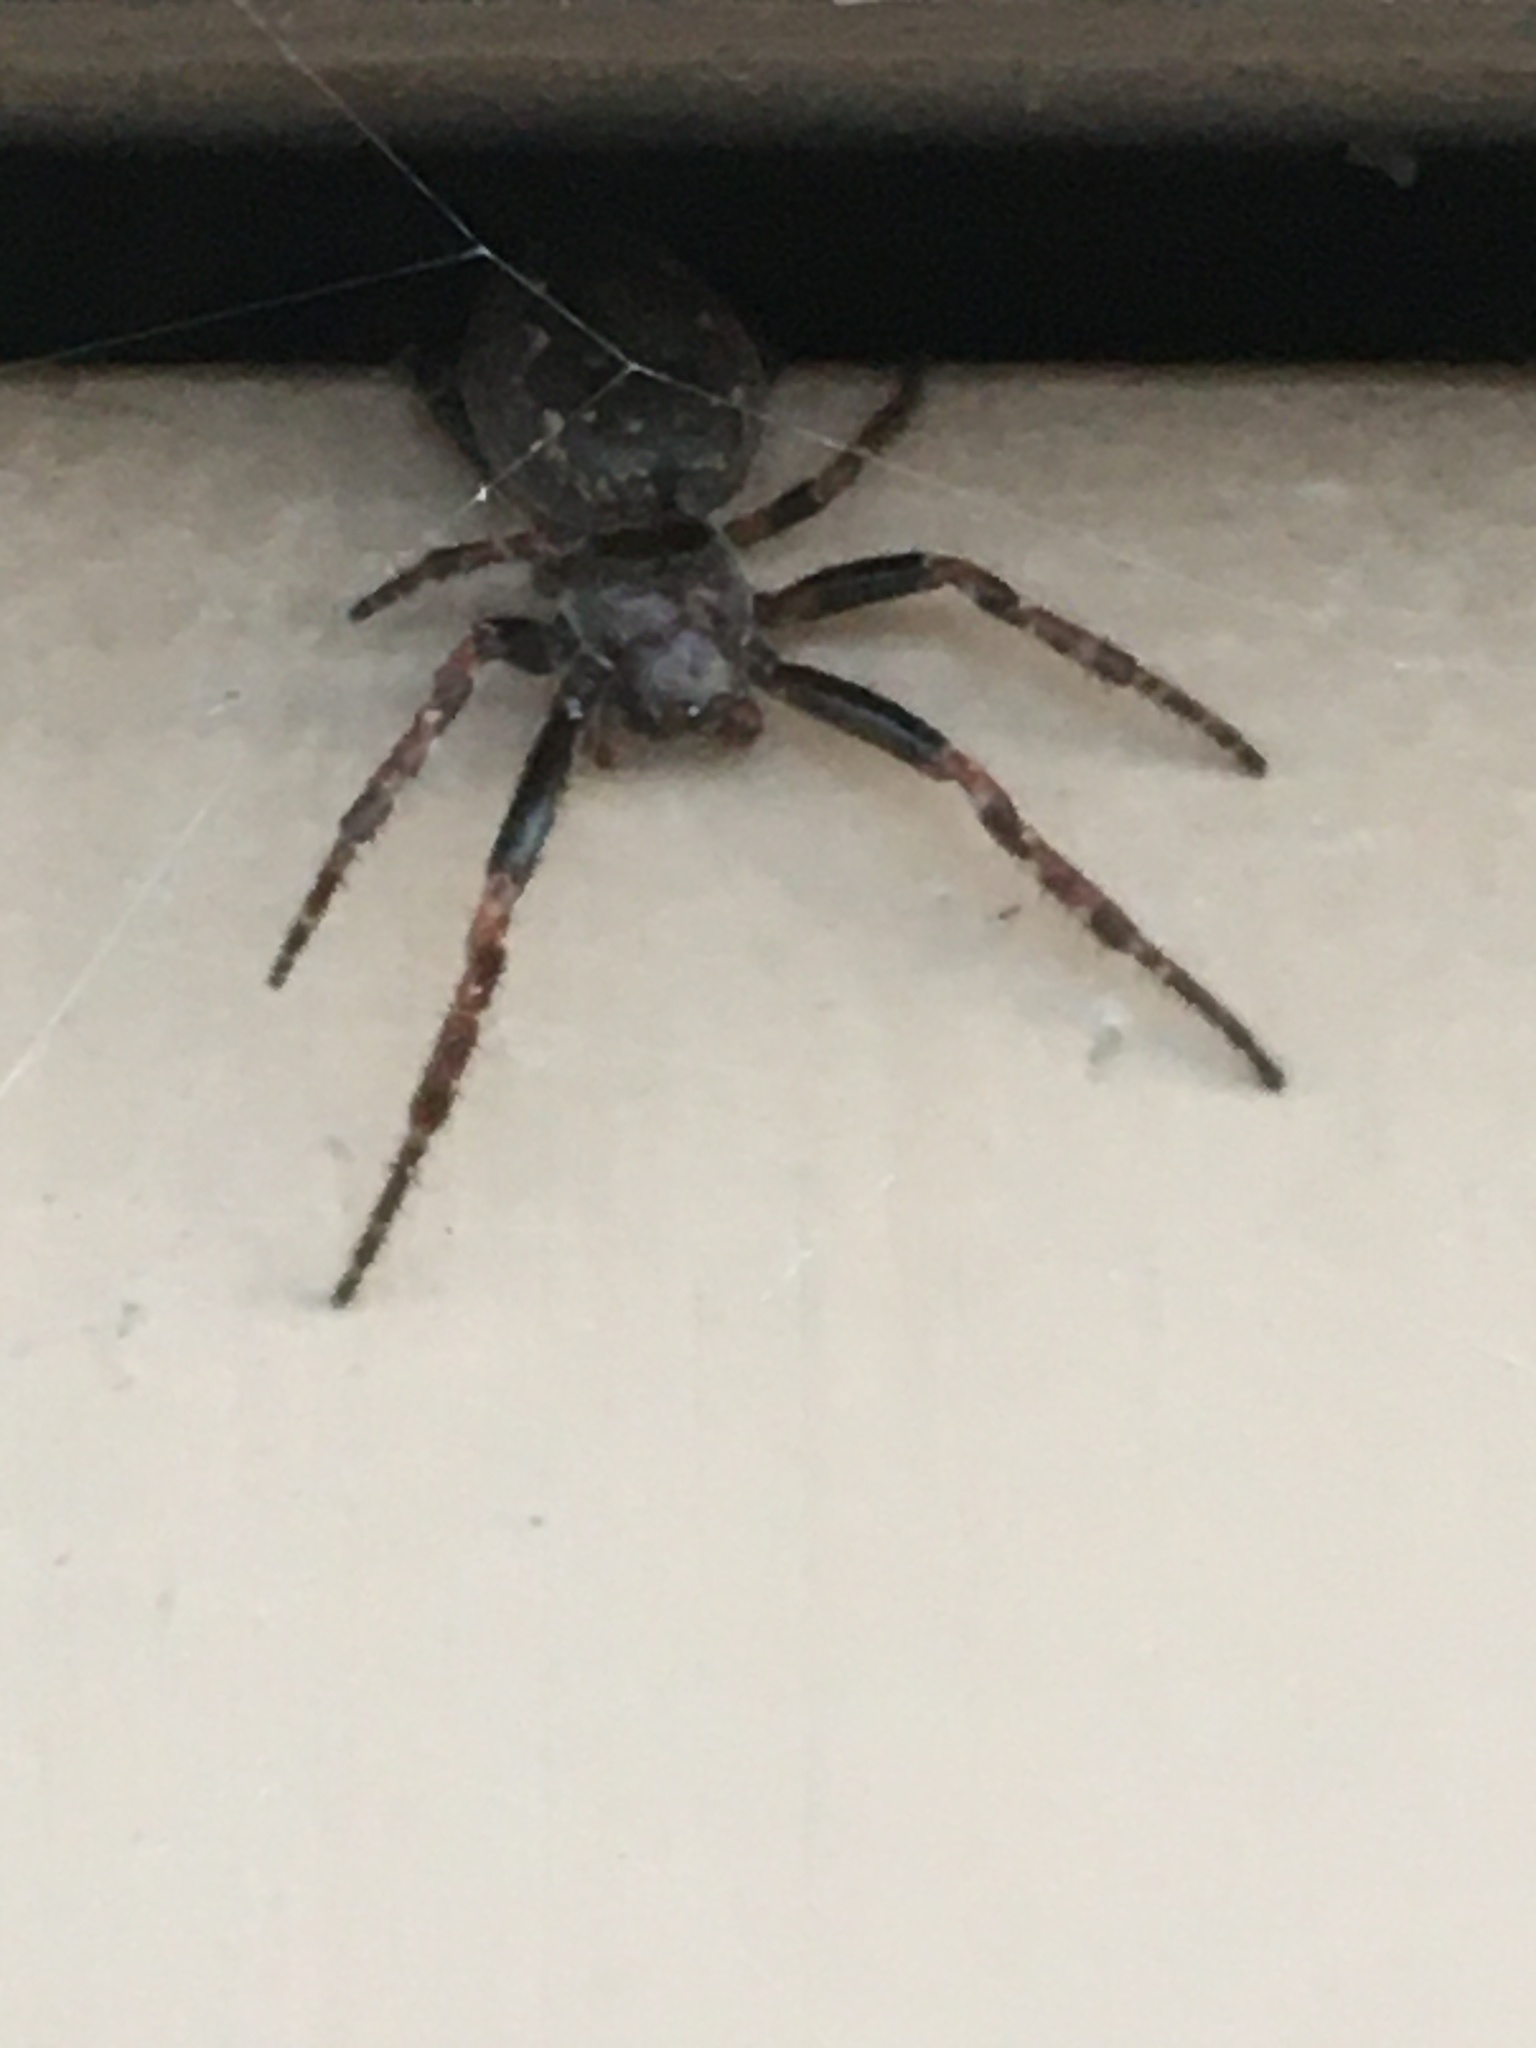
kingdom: Animalia
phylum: Arthropoda
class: Arachnida
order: Araneae
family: Araneidae
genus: Nuctenea
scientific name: Nuctenea umbratica
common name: Toad spider
